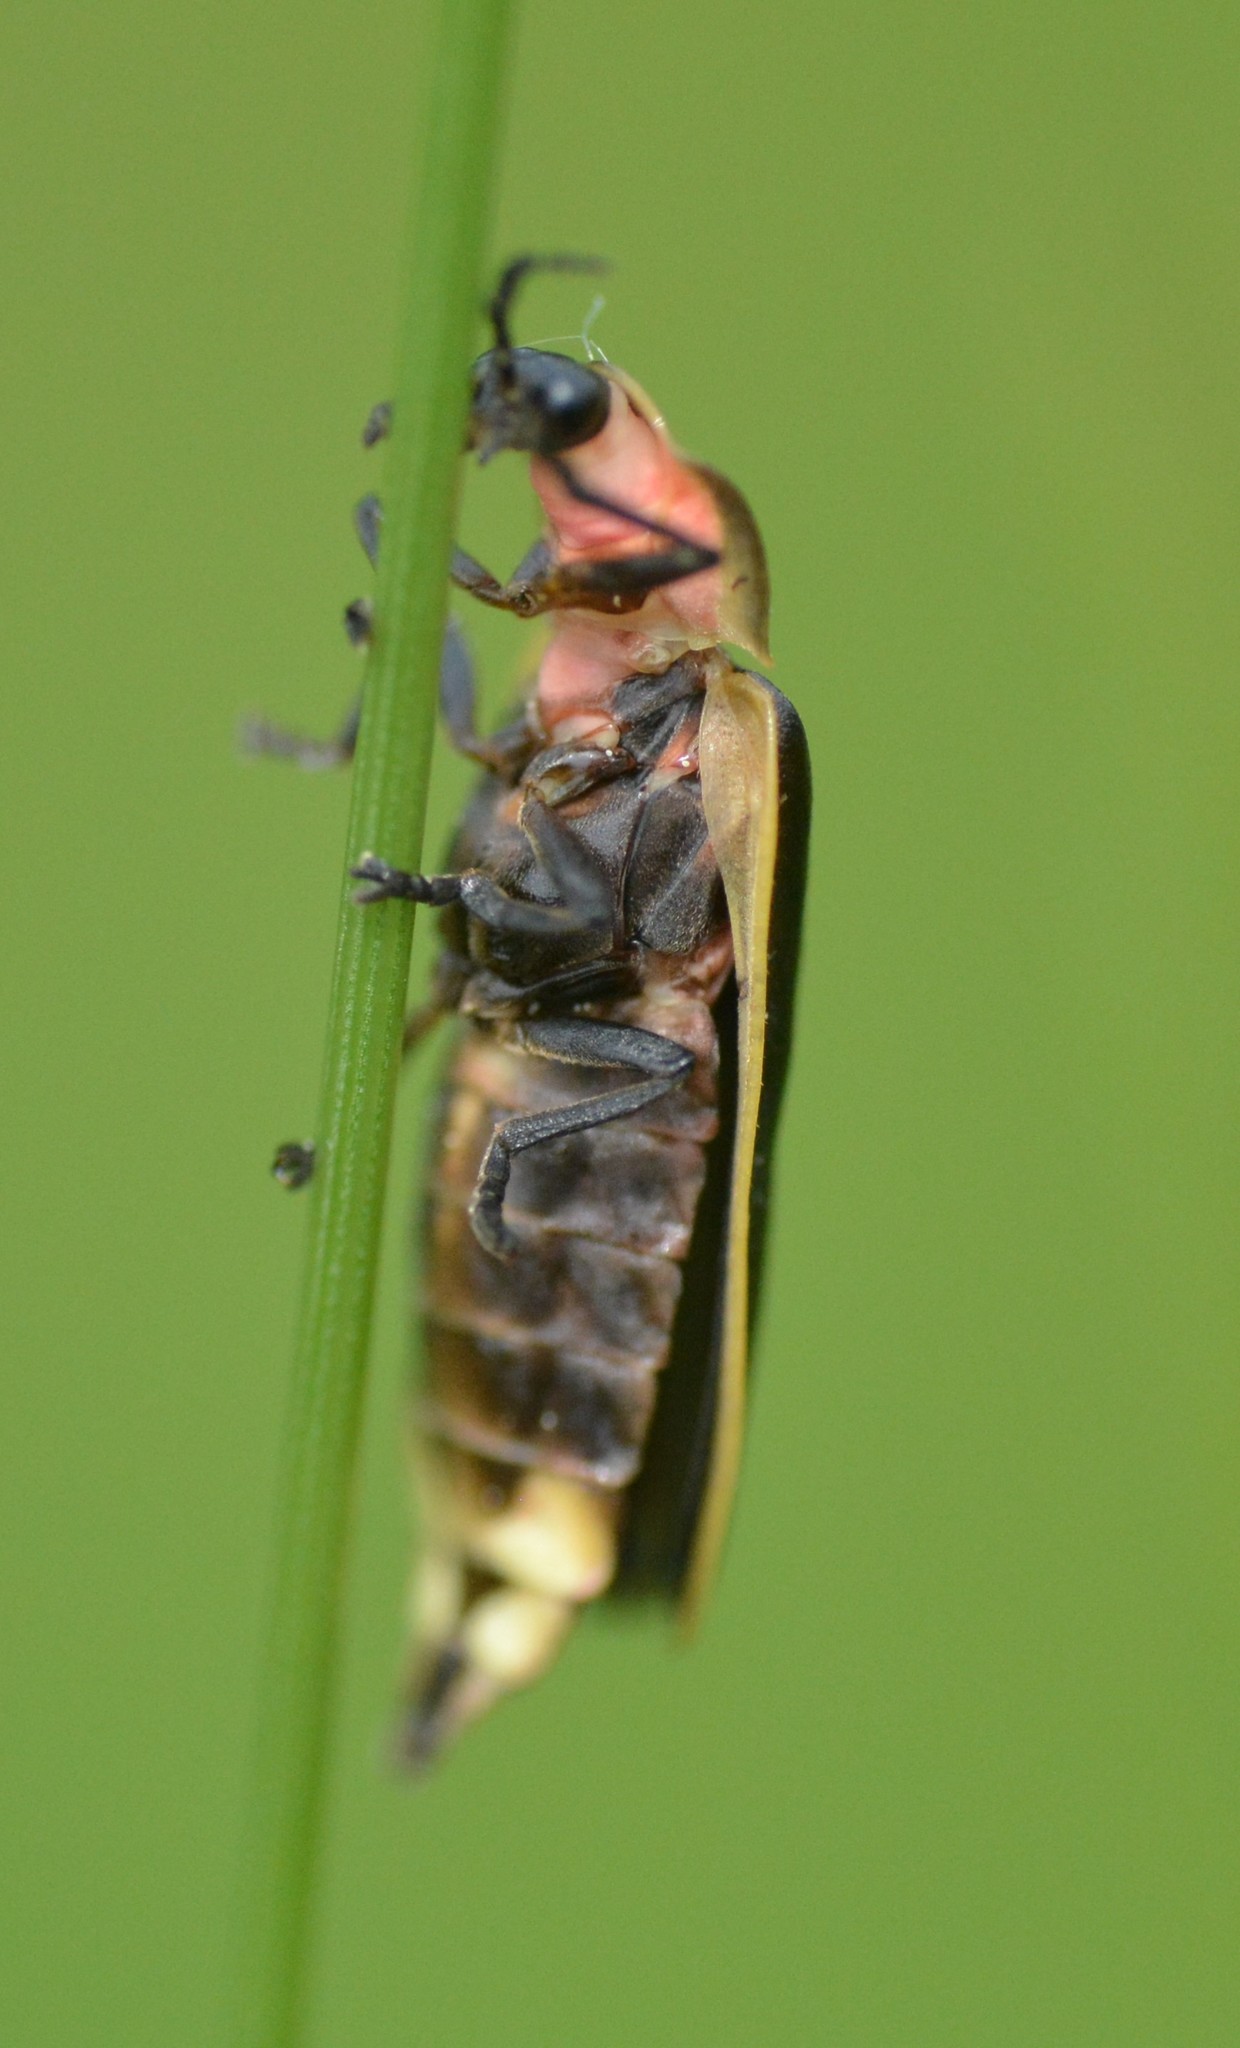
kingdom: Animalia
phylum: Arthropoda
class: Insecta
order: Coleoptera
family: Lampyridae
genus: Pyractomena
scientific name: Pyractomena borealis
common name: Northern firefly
